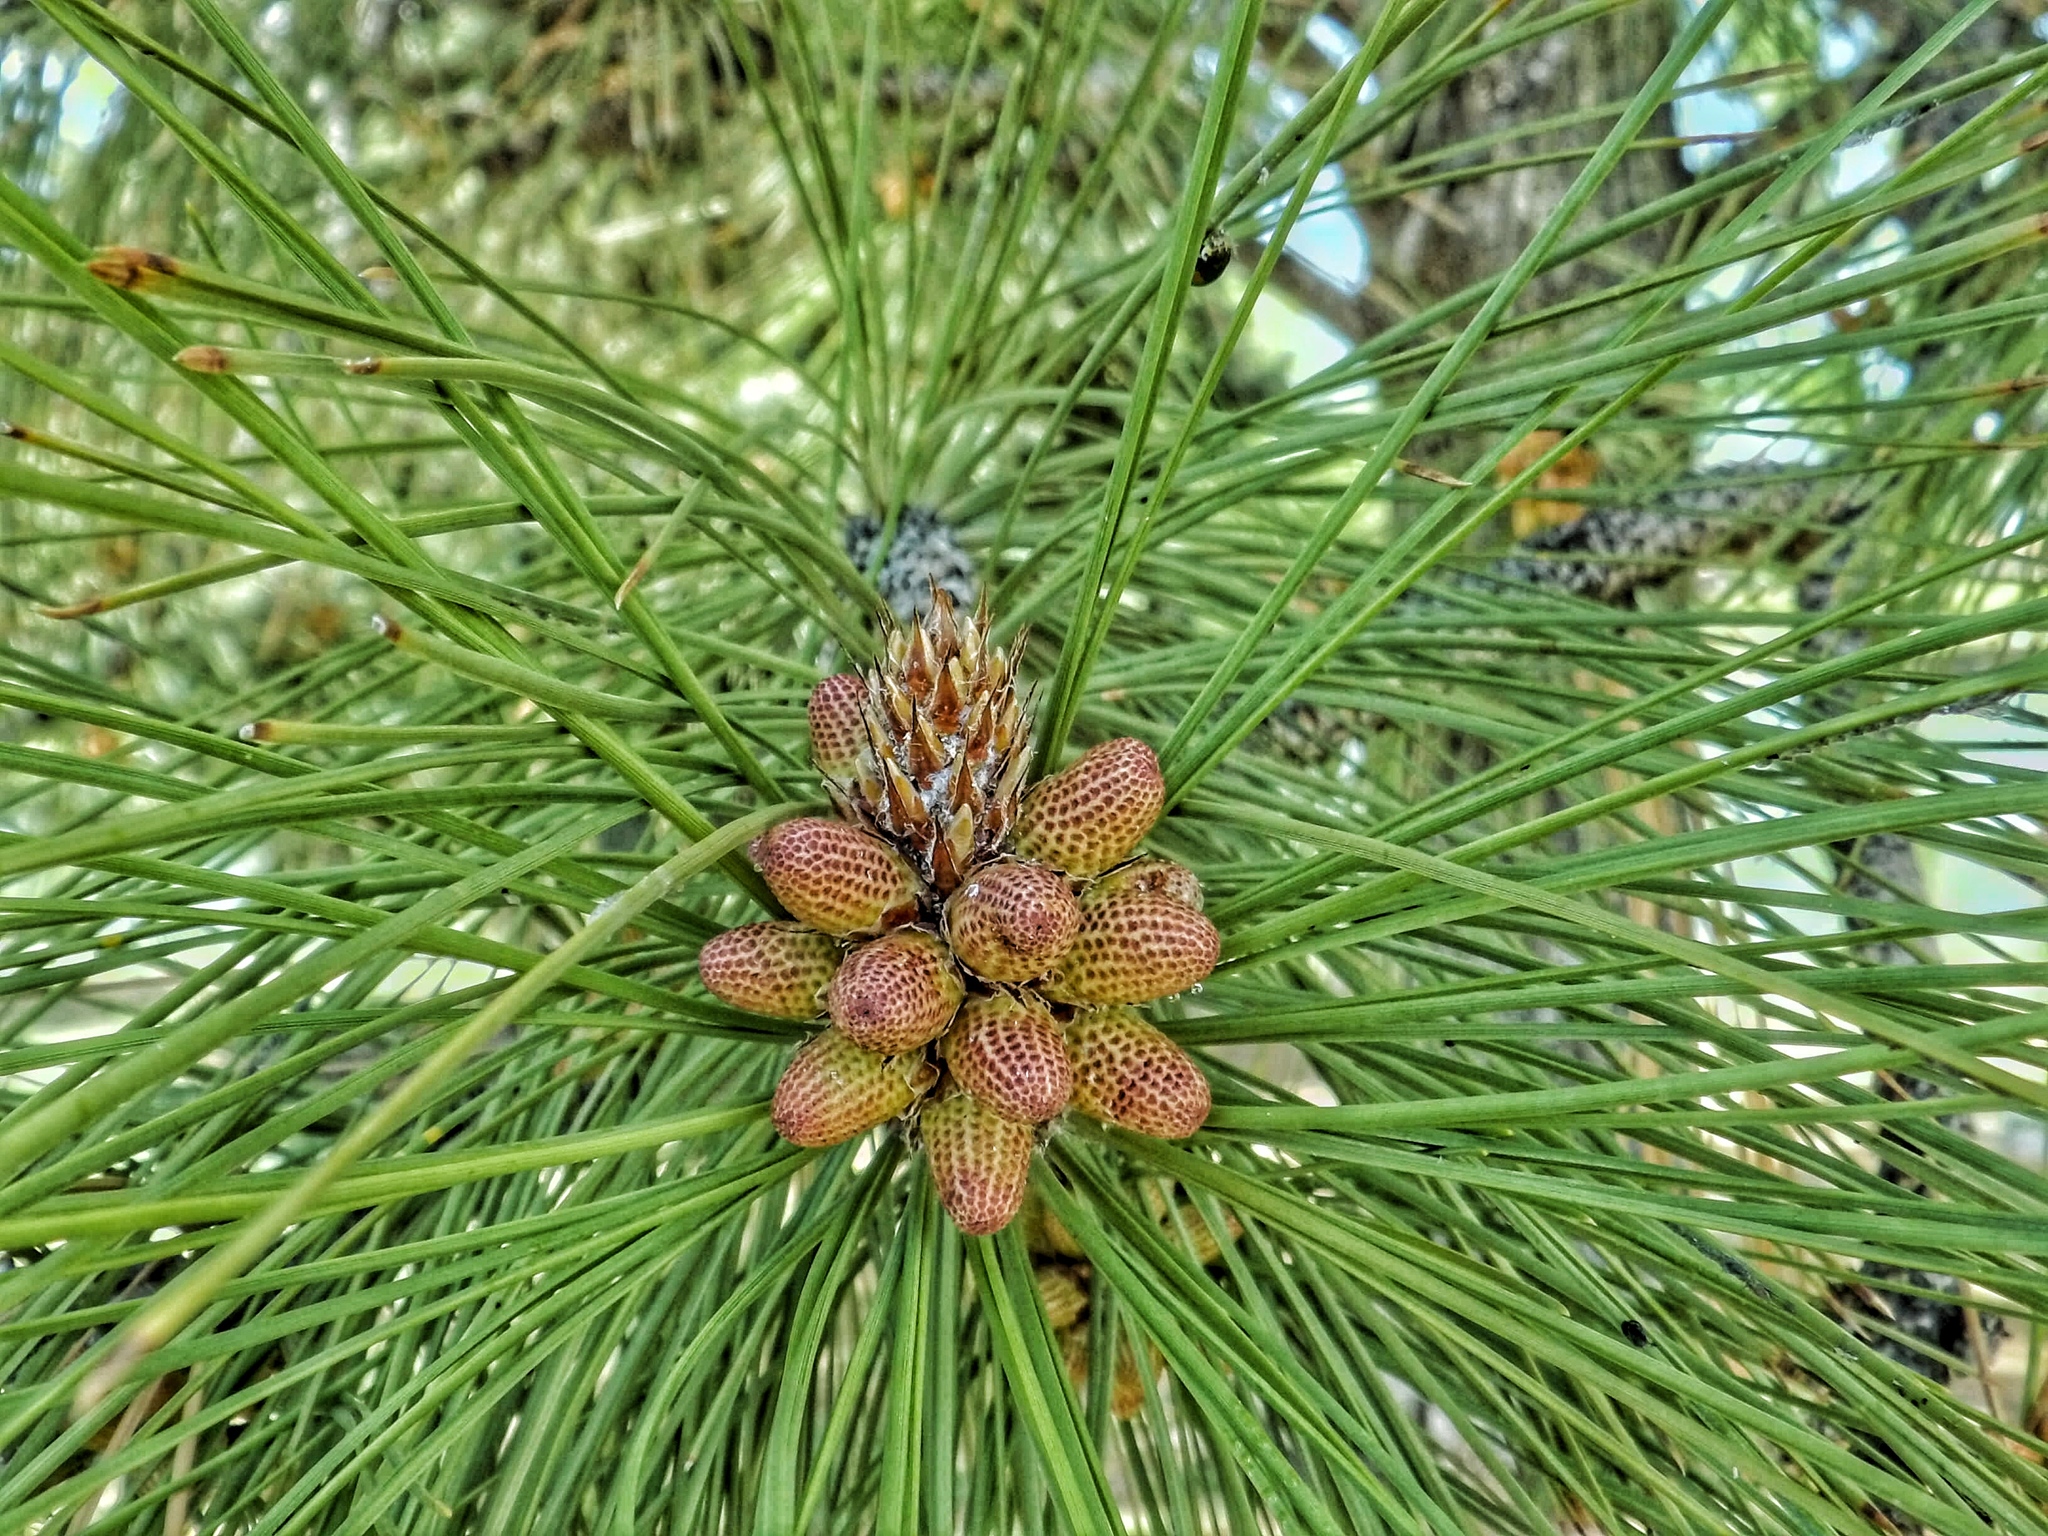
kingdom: Plantae
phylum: Tracheophyta
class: Pinopsida
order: Pinales
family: Pinaceae
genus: Pinus
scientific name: Pinus ponderosa
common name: Western yellow-pine
